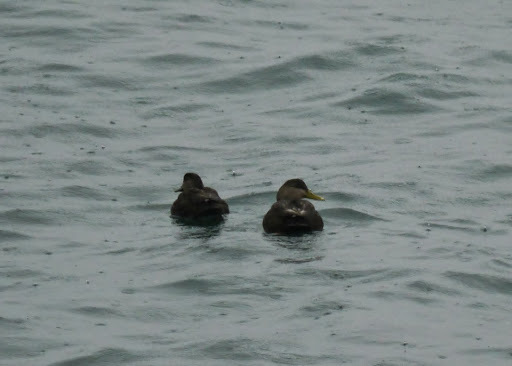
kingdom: Animalia
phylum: Chordata
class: Aves
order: Anseriformes
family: Anatidae
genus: Anas
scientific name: Anas rubripes
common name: American black duck
